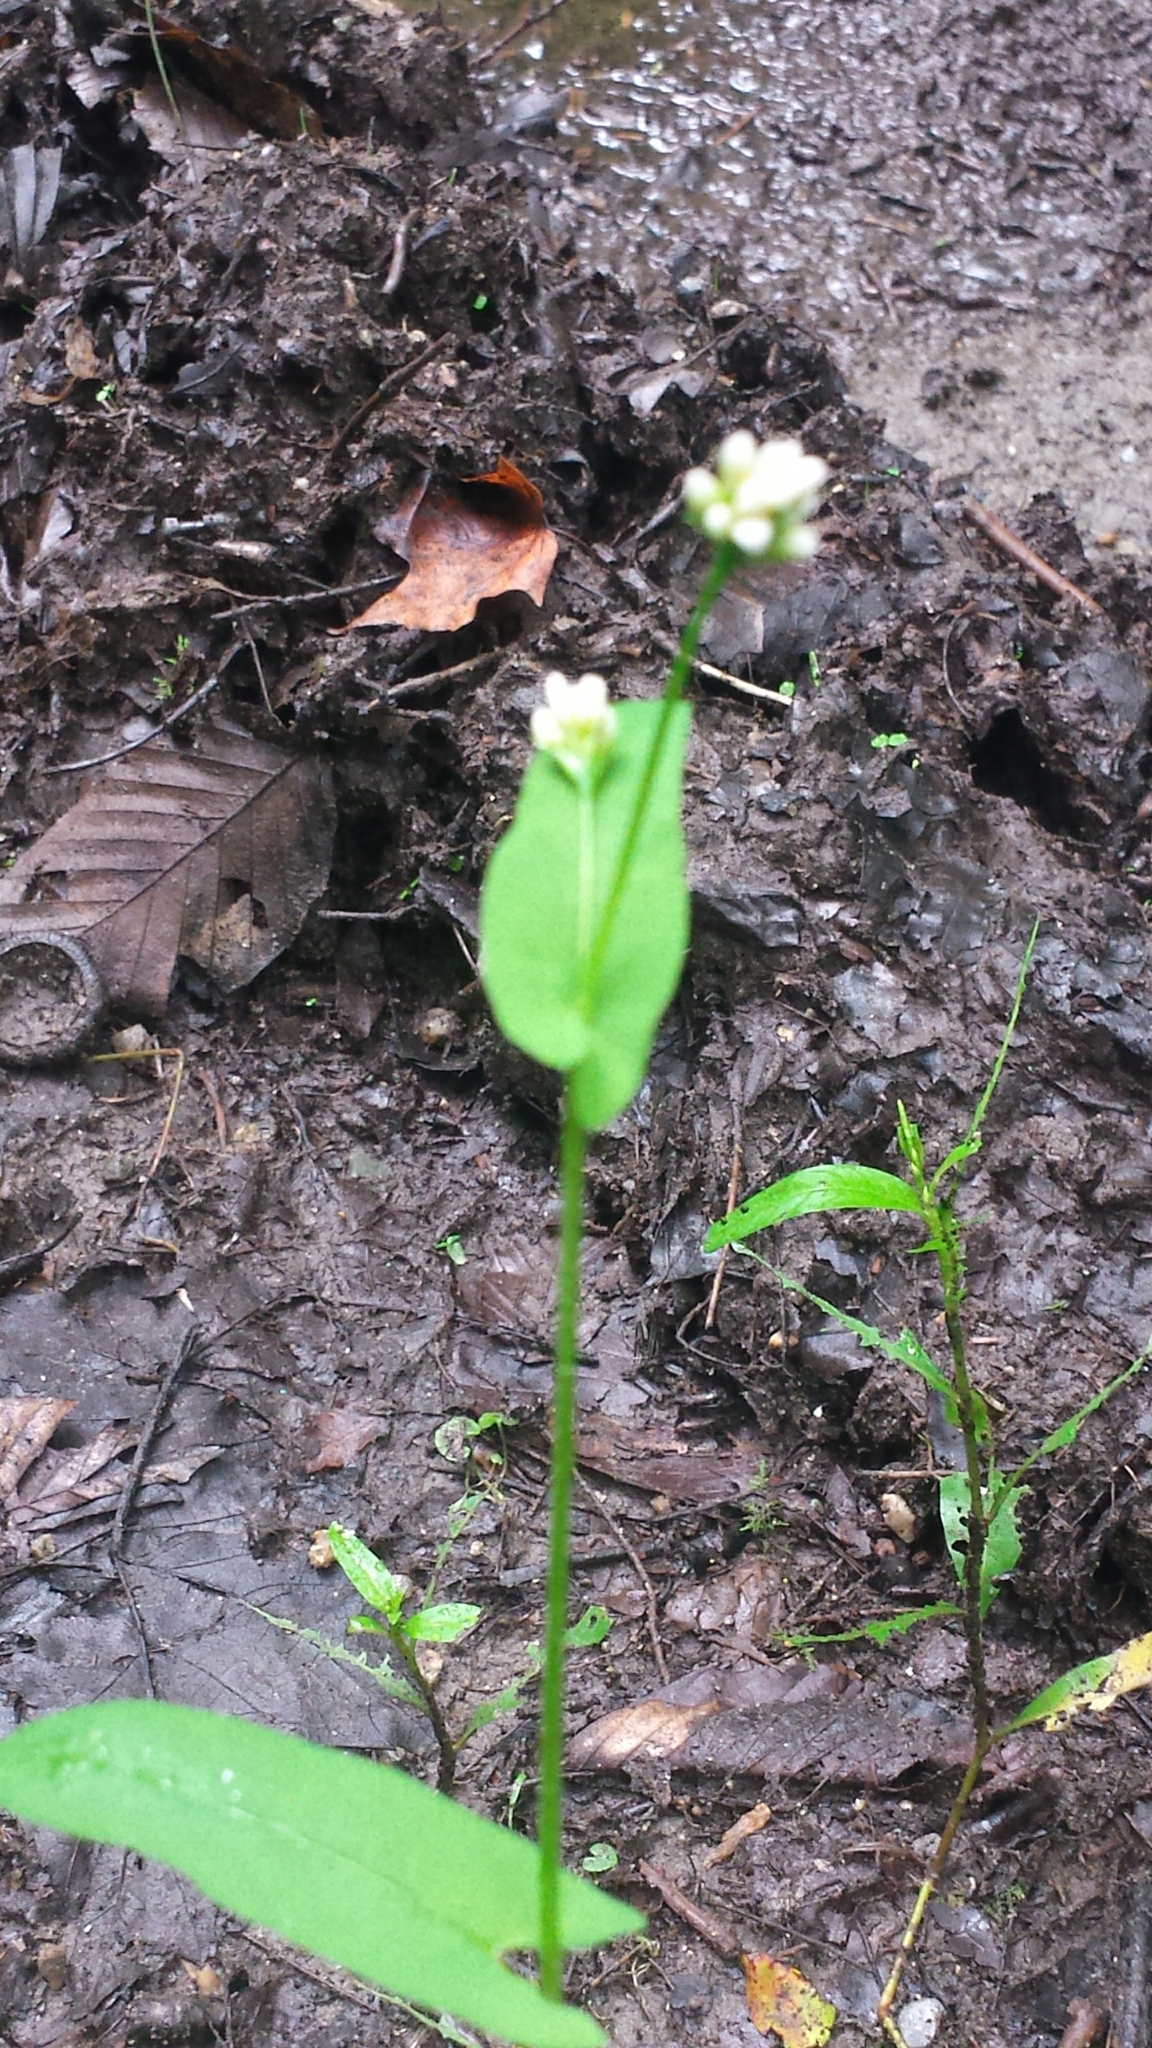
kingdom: Plantae
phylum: Tracheophyta
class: Magnoliopsida
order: Caryophyllales
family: Polygonaceae
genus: Persicaria
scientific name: Persicaria sagittata
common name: American tearthumb
